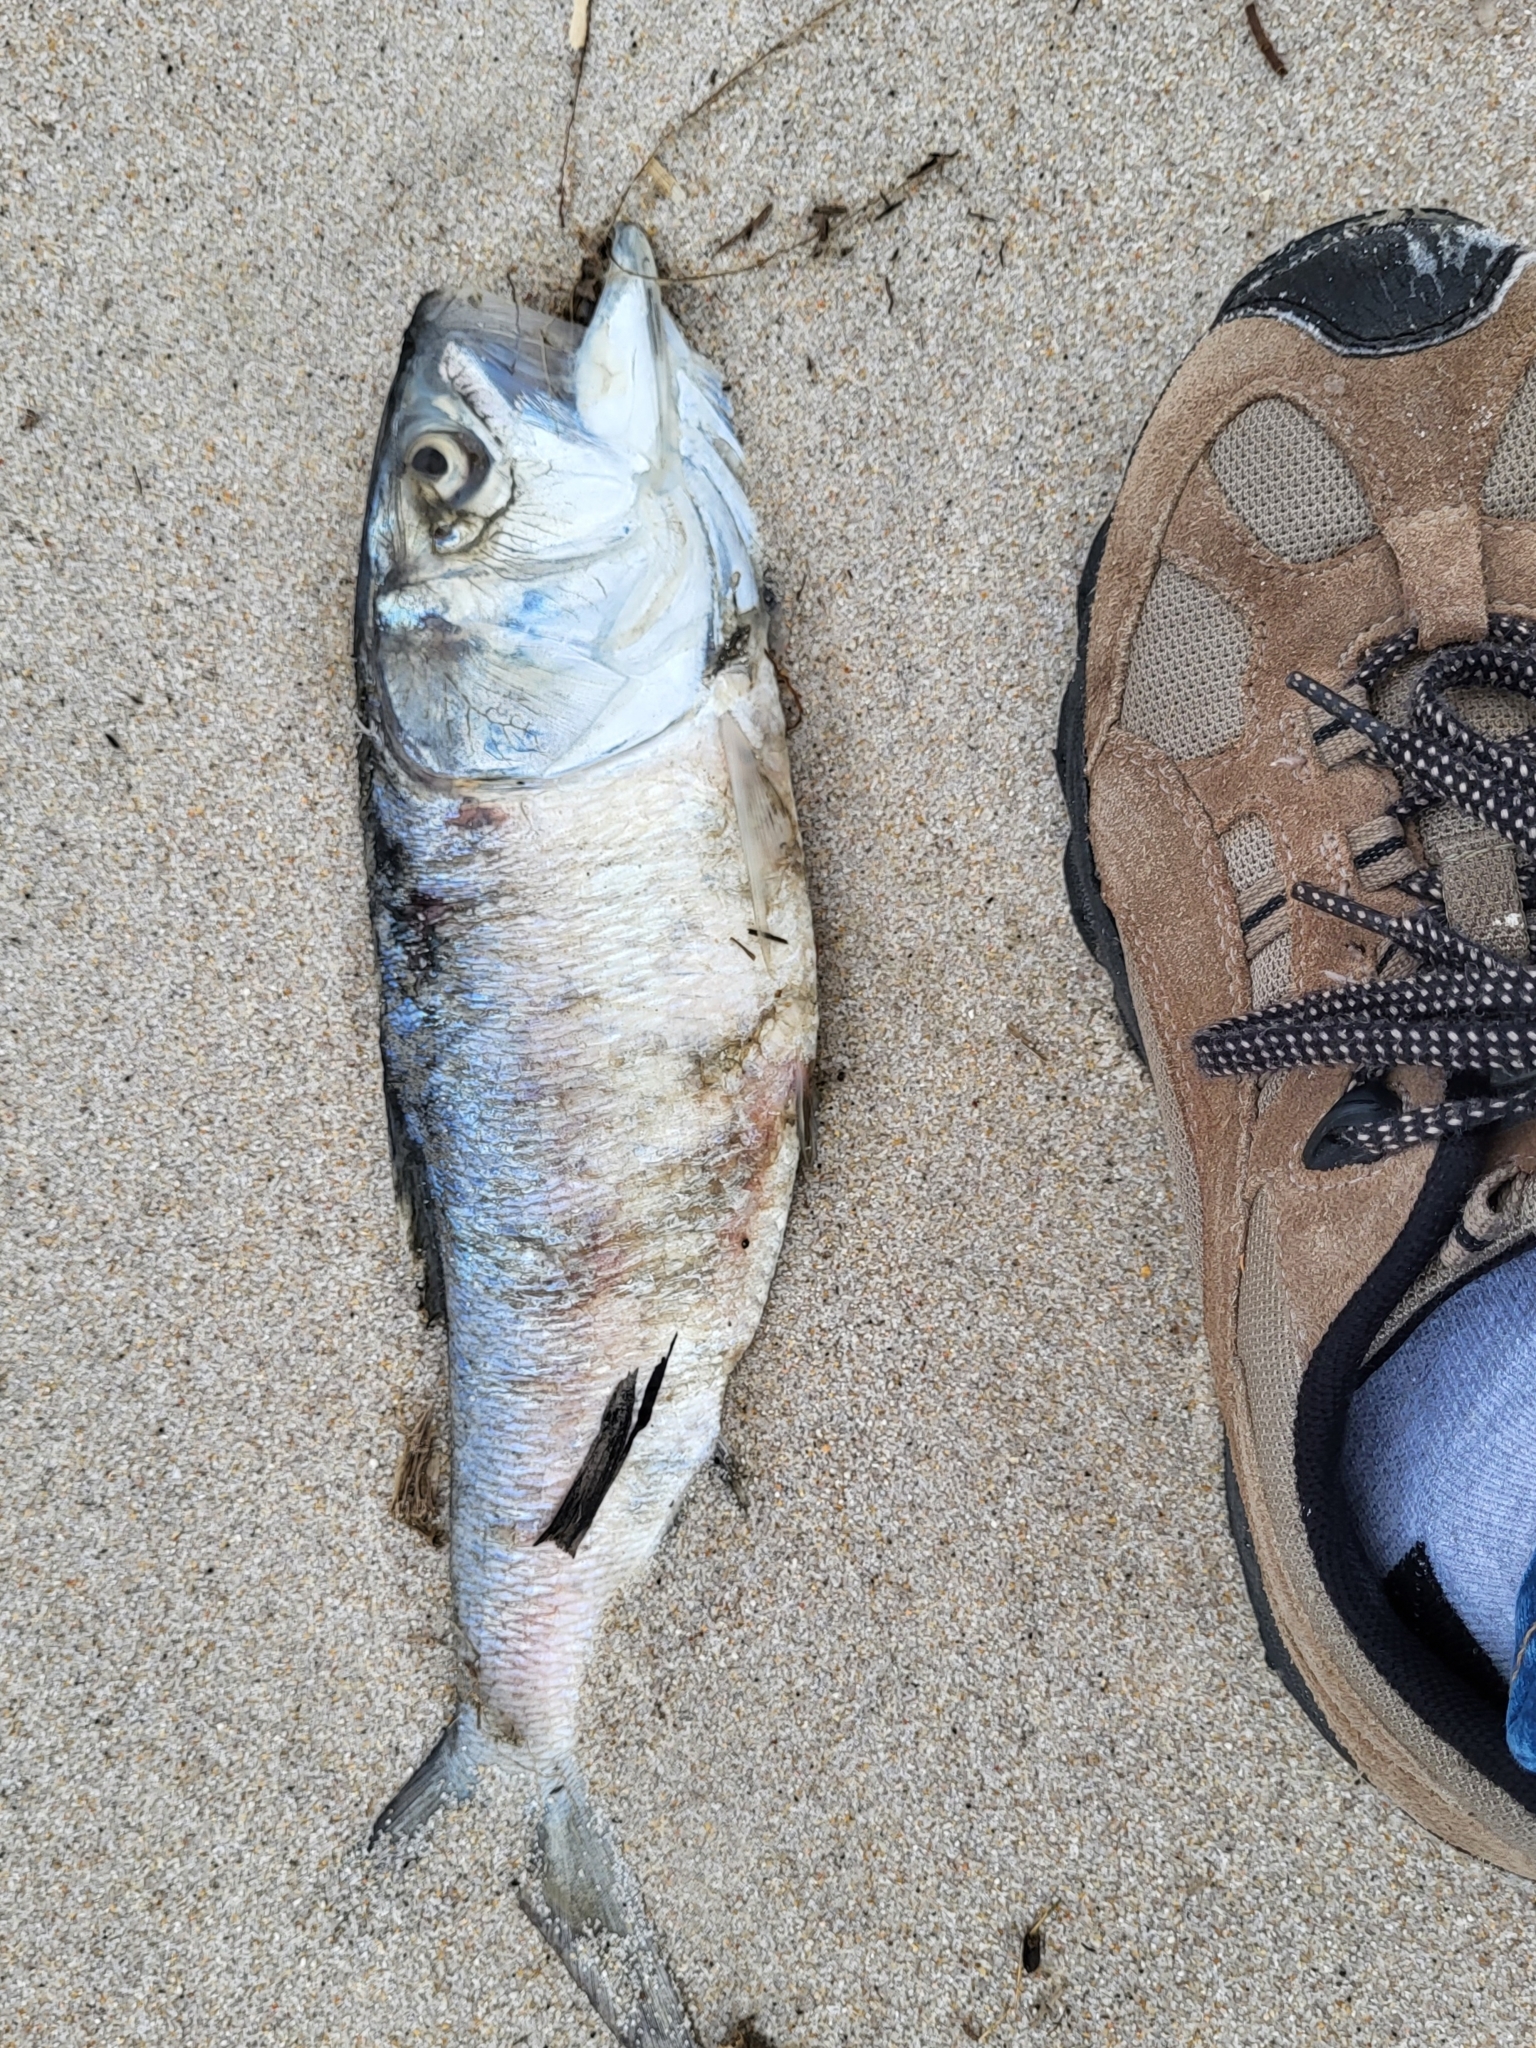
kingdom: Animalia
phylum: Chordata
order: Clupeiformes
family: Clupeidae
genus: Brevoortia
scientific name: Brevoortia tyrannus
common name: Atlantic menhaden
